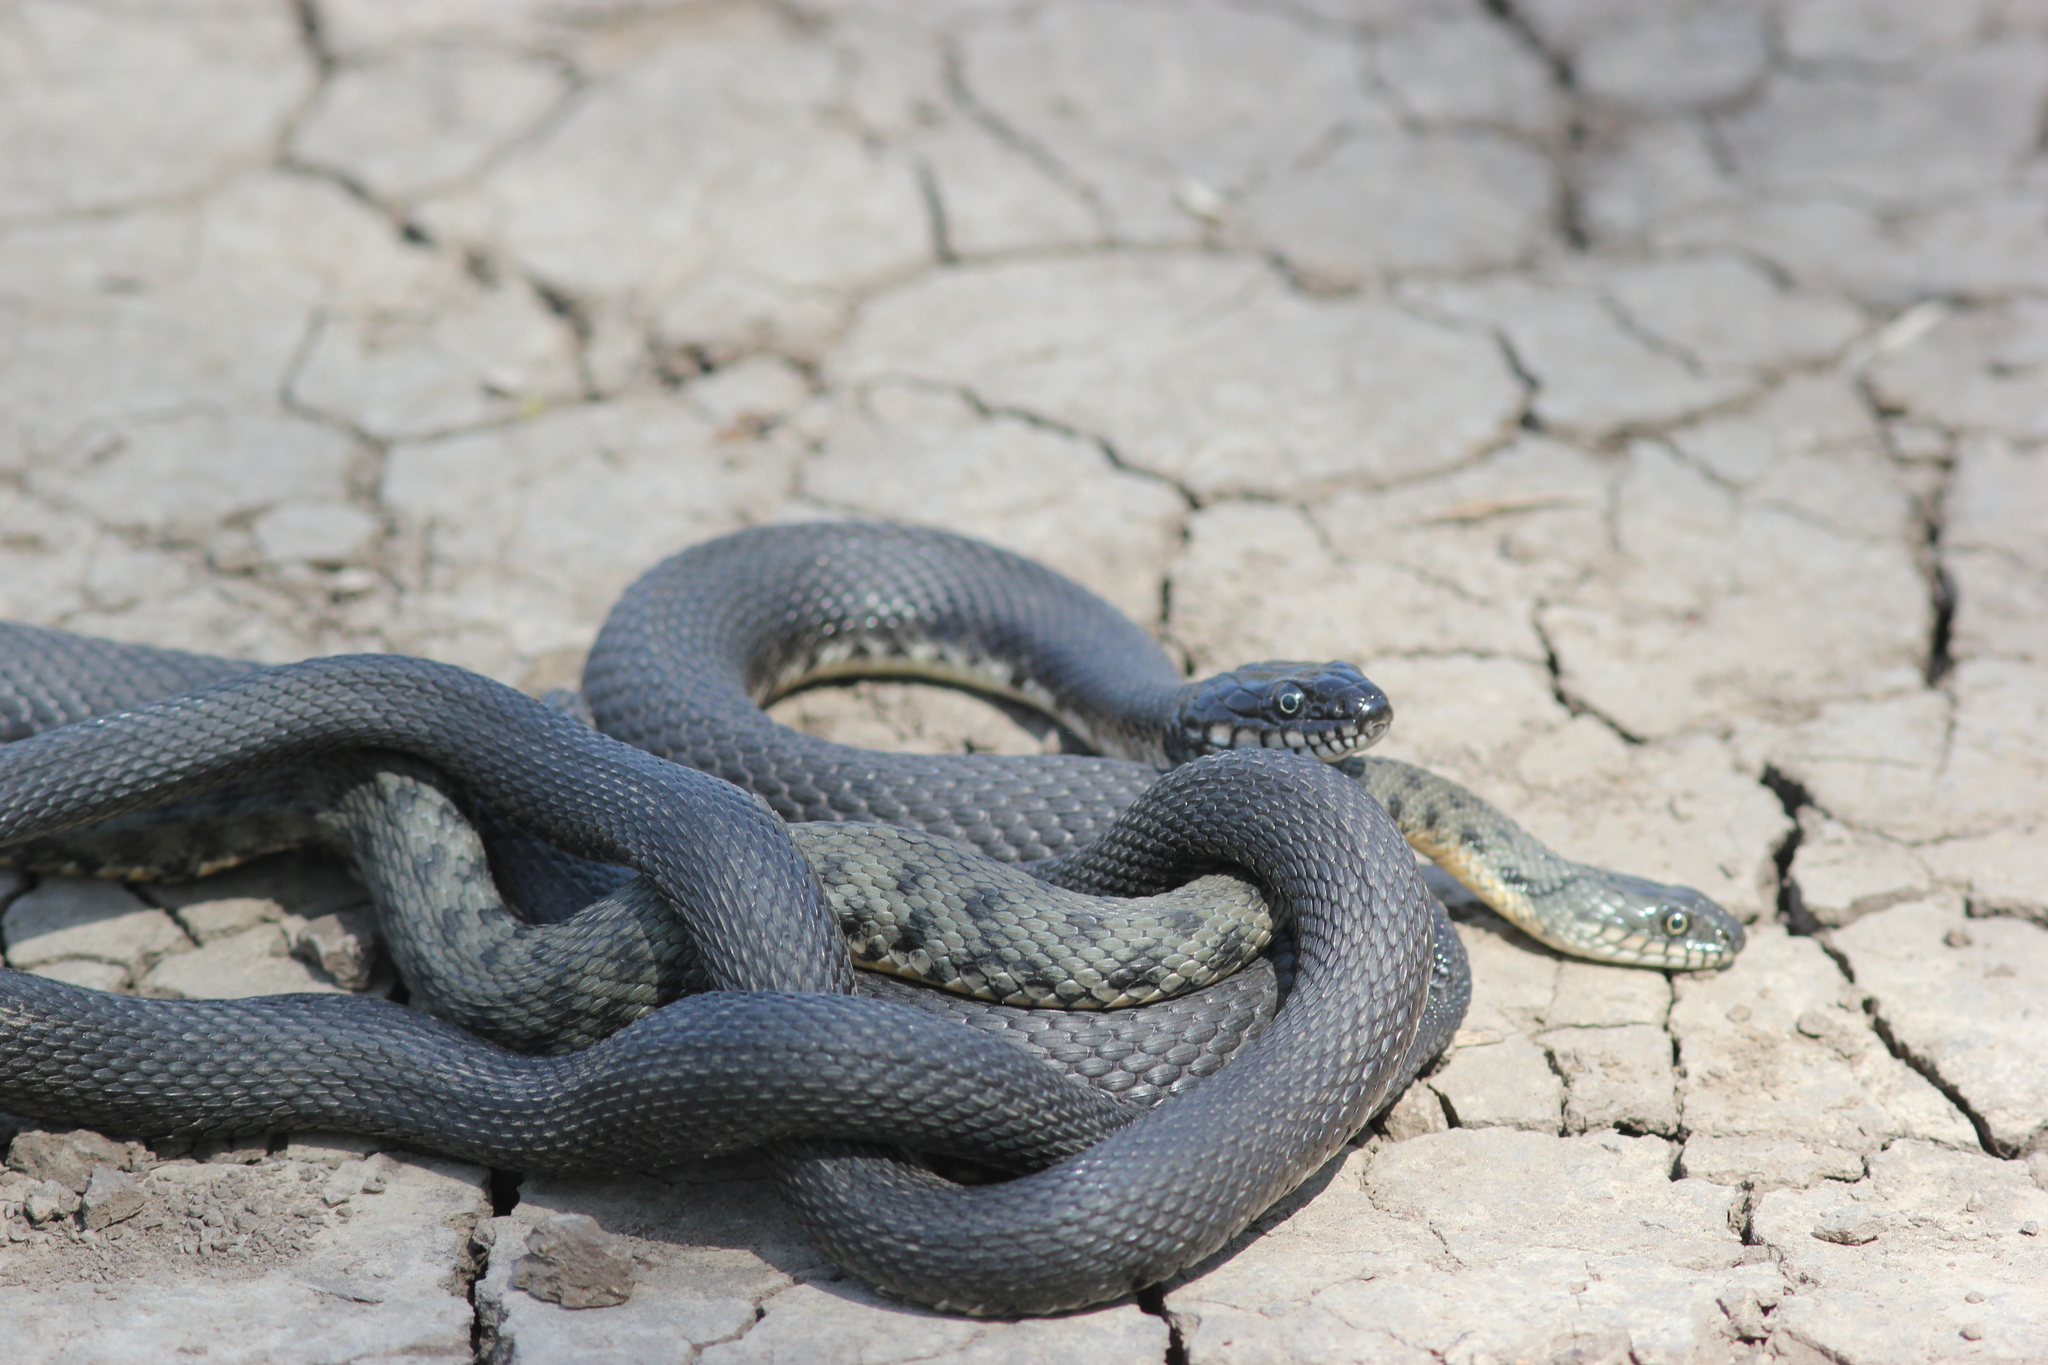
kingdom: Animalia
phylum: Chordata
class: Squamata
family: Colubridae
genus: Natrix
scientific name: Natrix tessellata
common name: Dice snake
